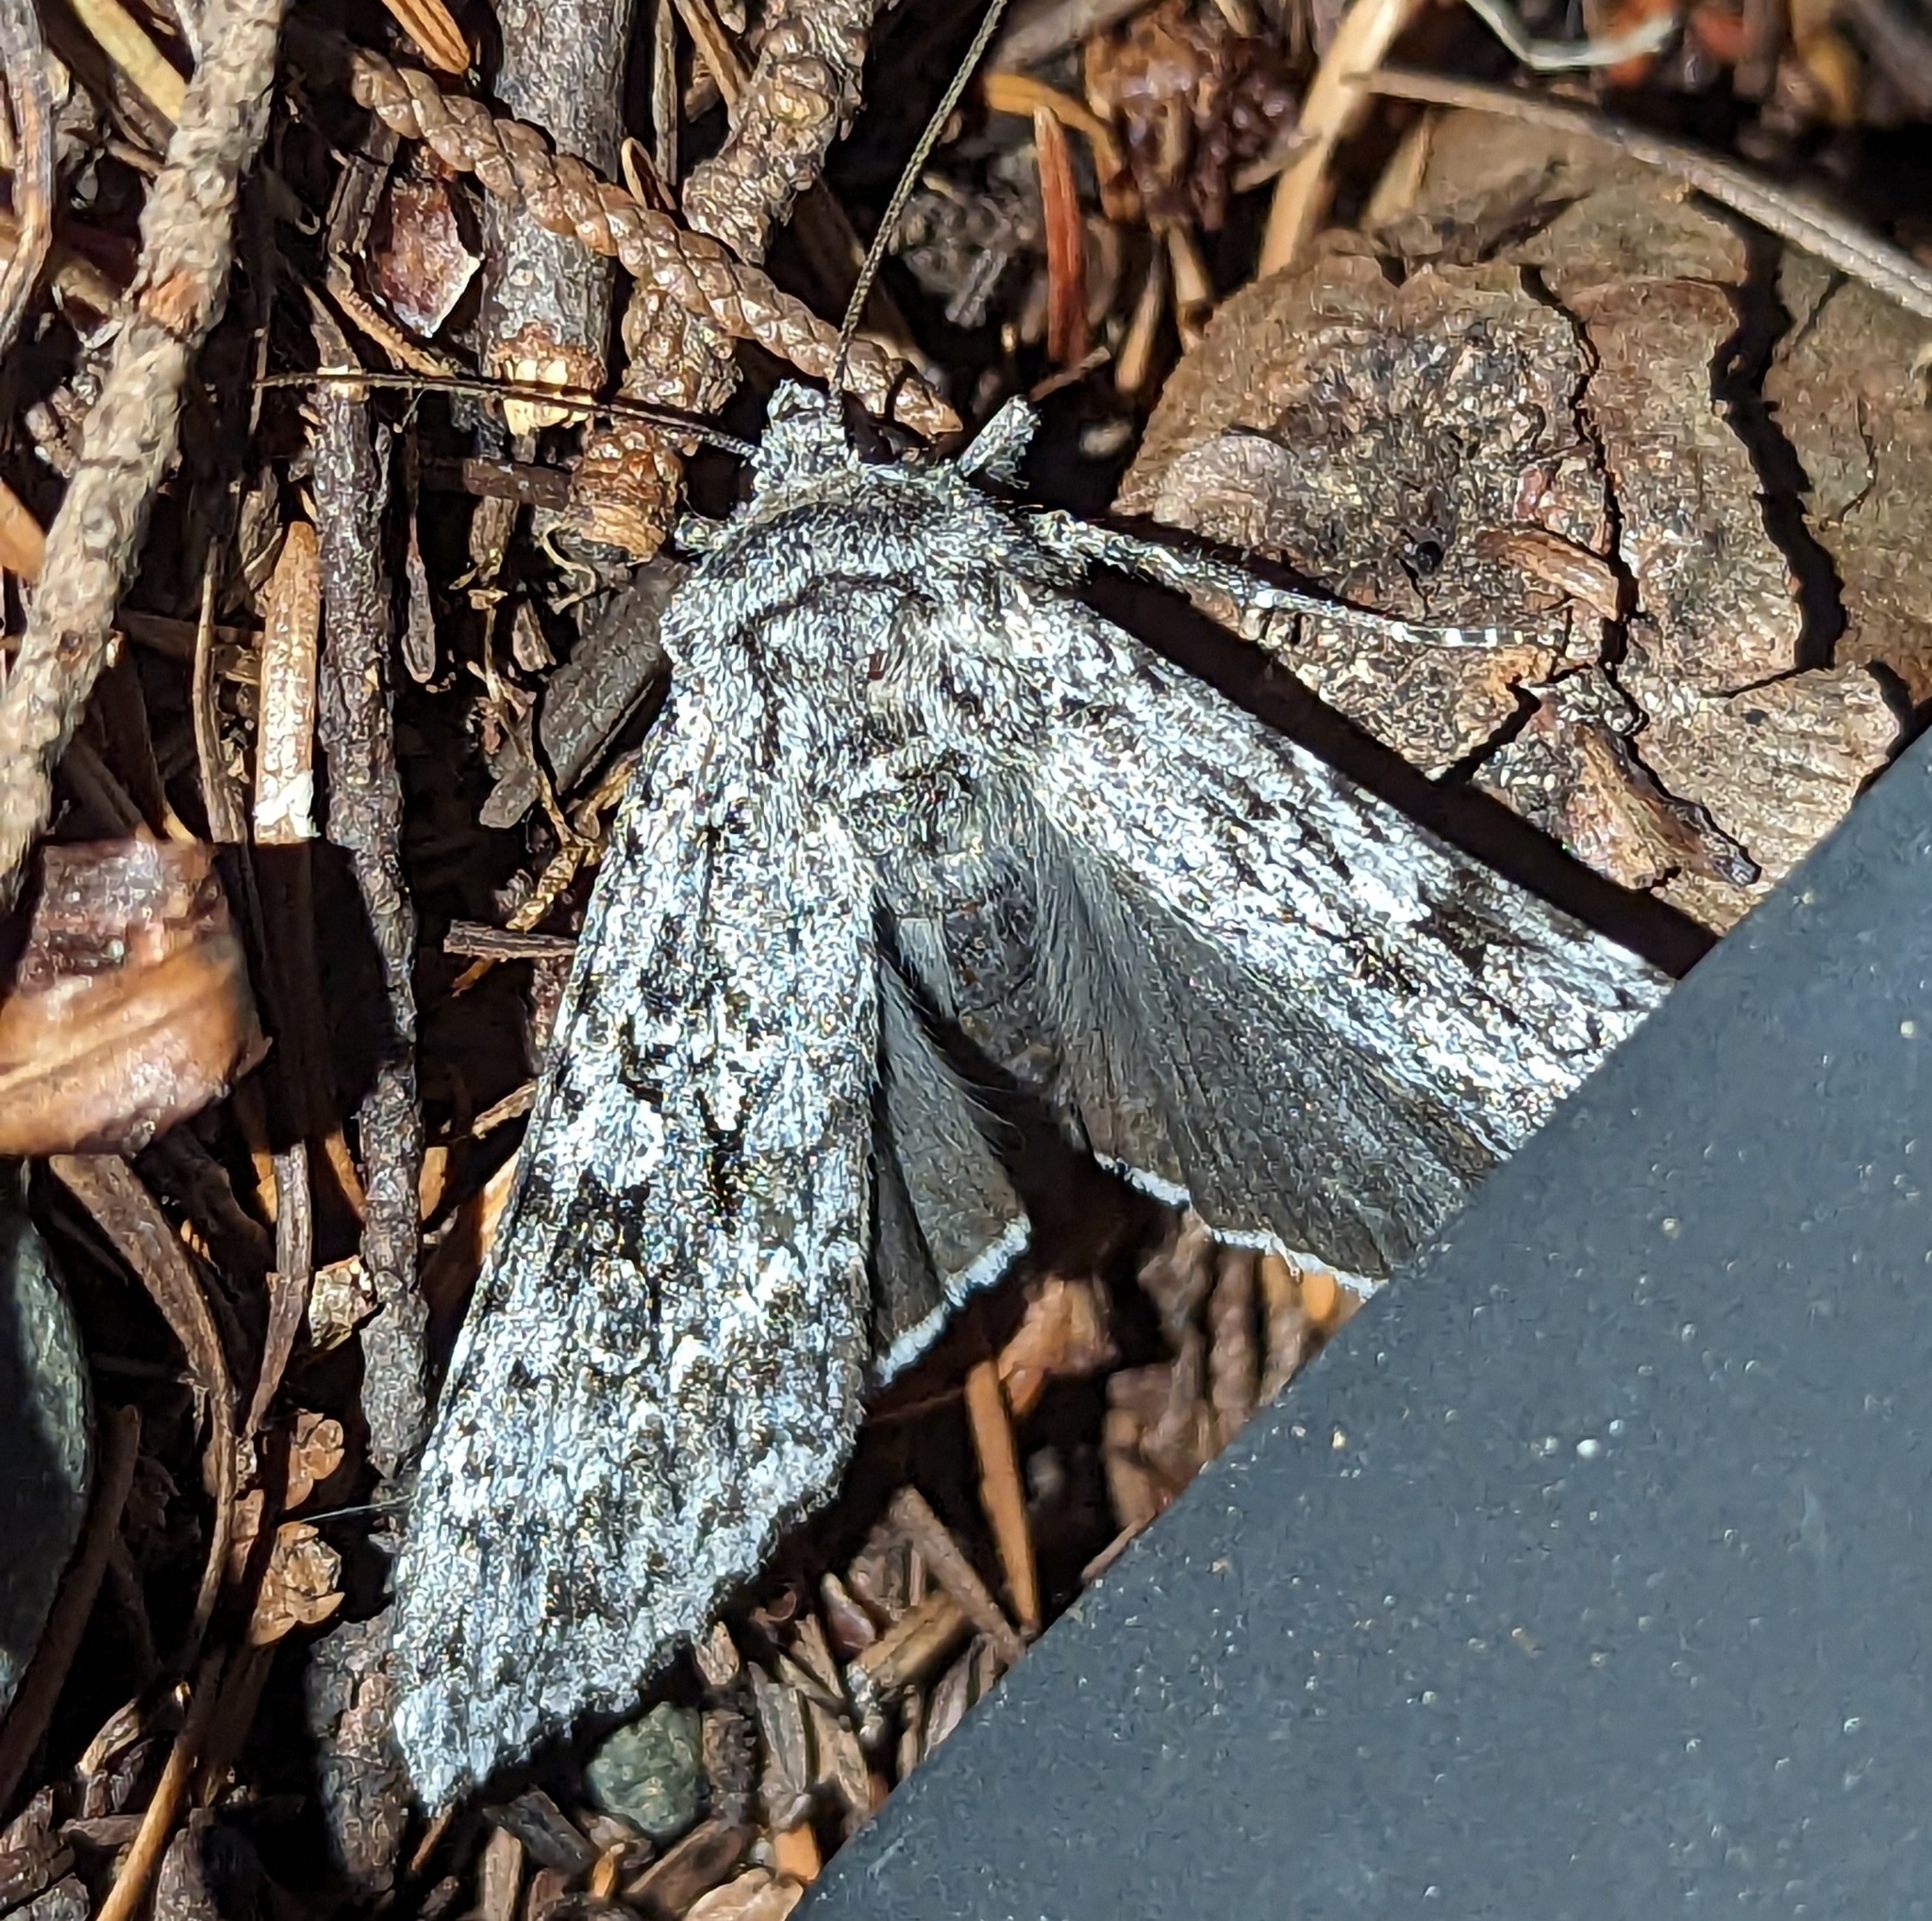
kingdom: Animalia
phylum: Arthropoda
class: Insecta
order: Lepidoptera
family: Noctuidae
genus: Eurois
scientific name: Eurois occulta
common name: Great brocade
